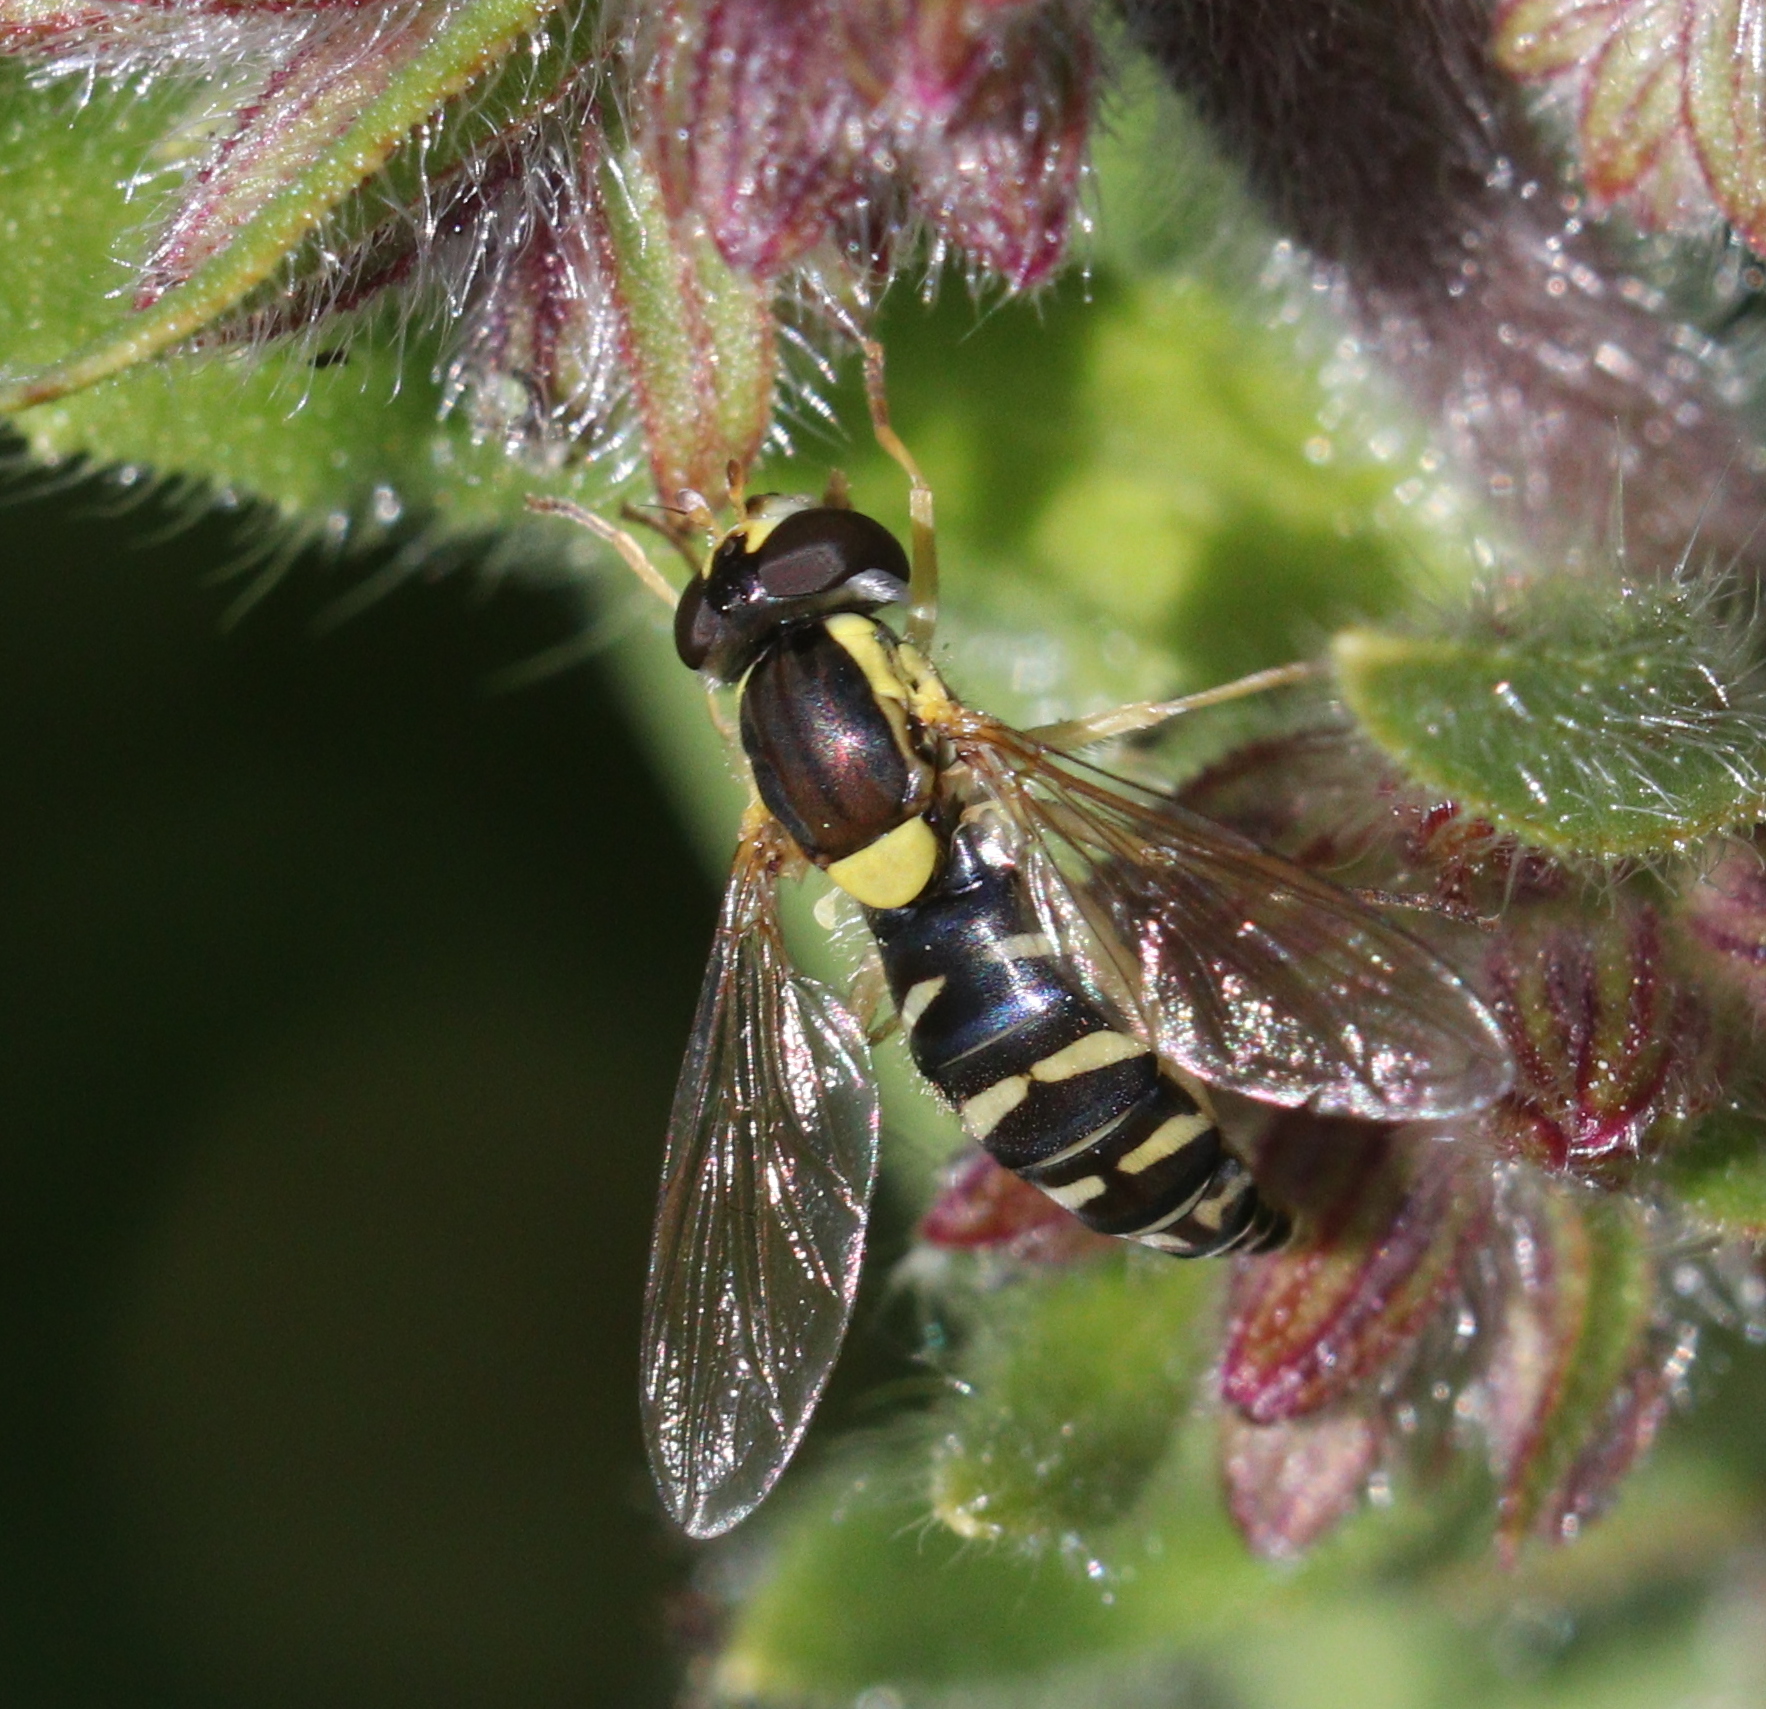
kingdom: Animalia
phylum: Arthropoda
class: Insecta
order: Diptera
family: Syrphidae
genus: Sphaerophoria
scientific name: Sphaerophoria
